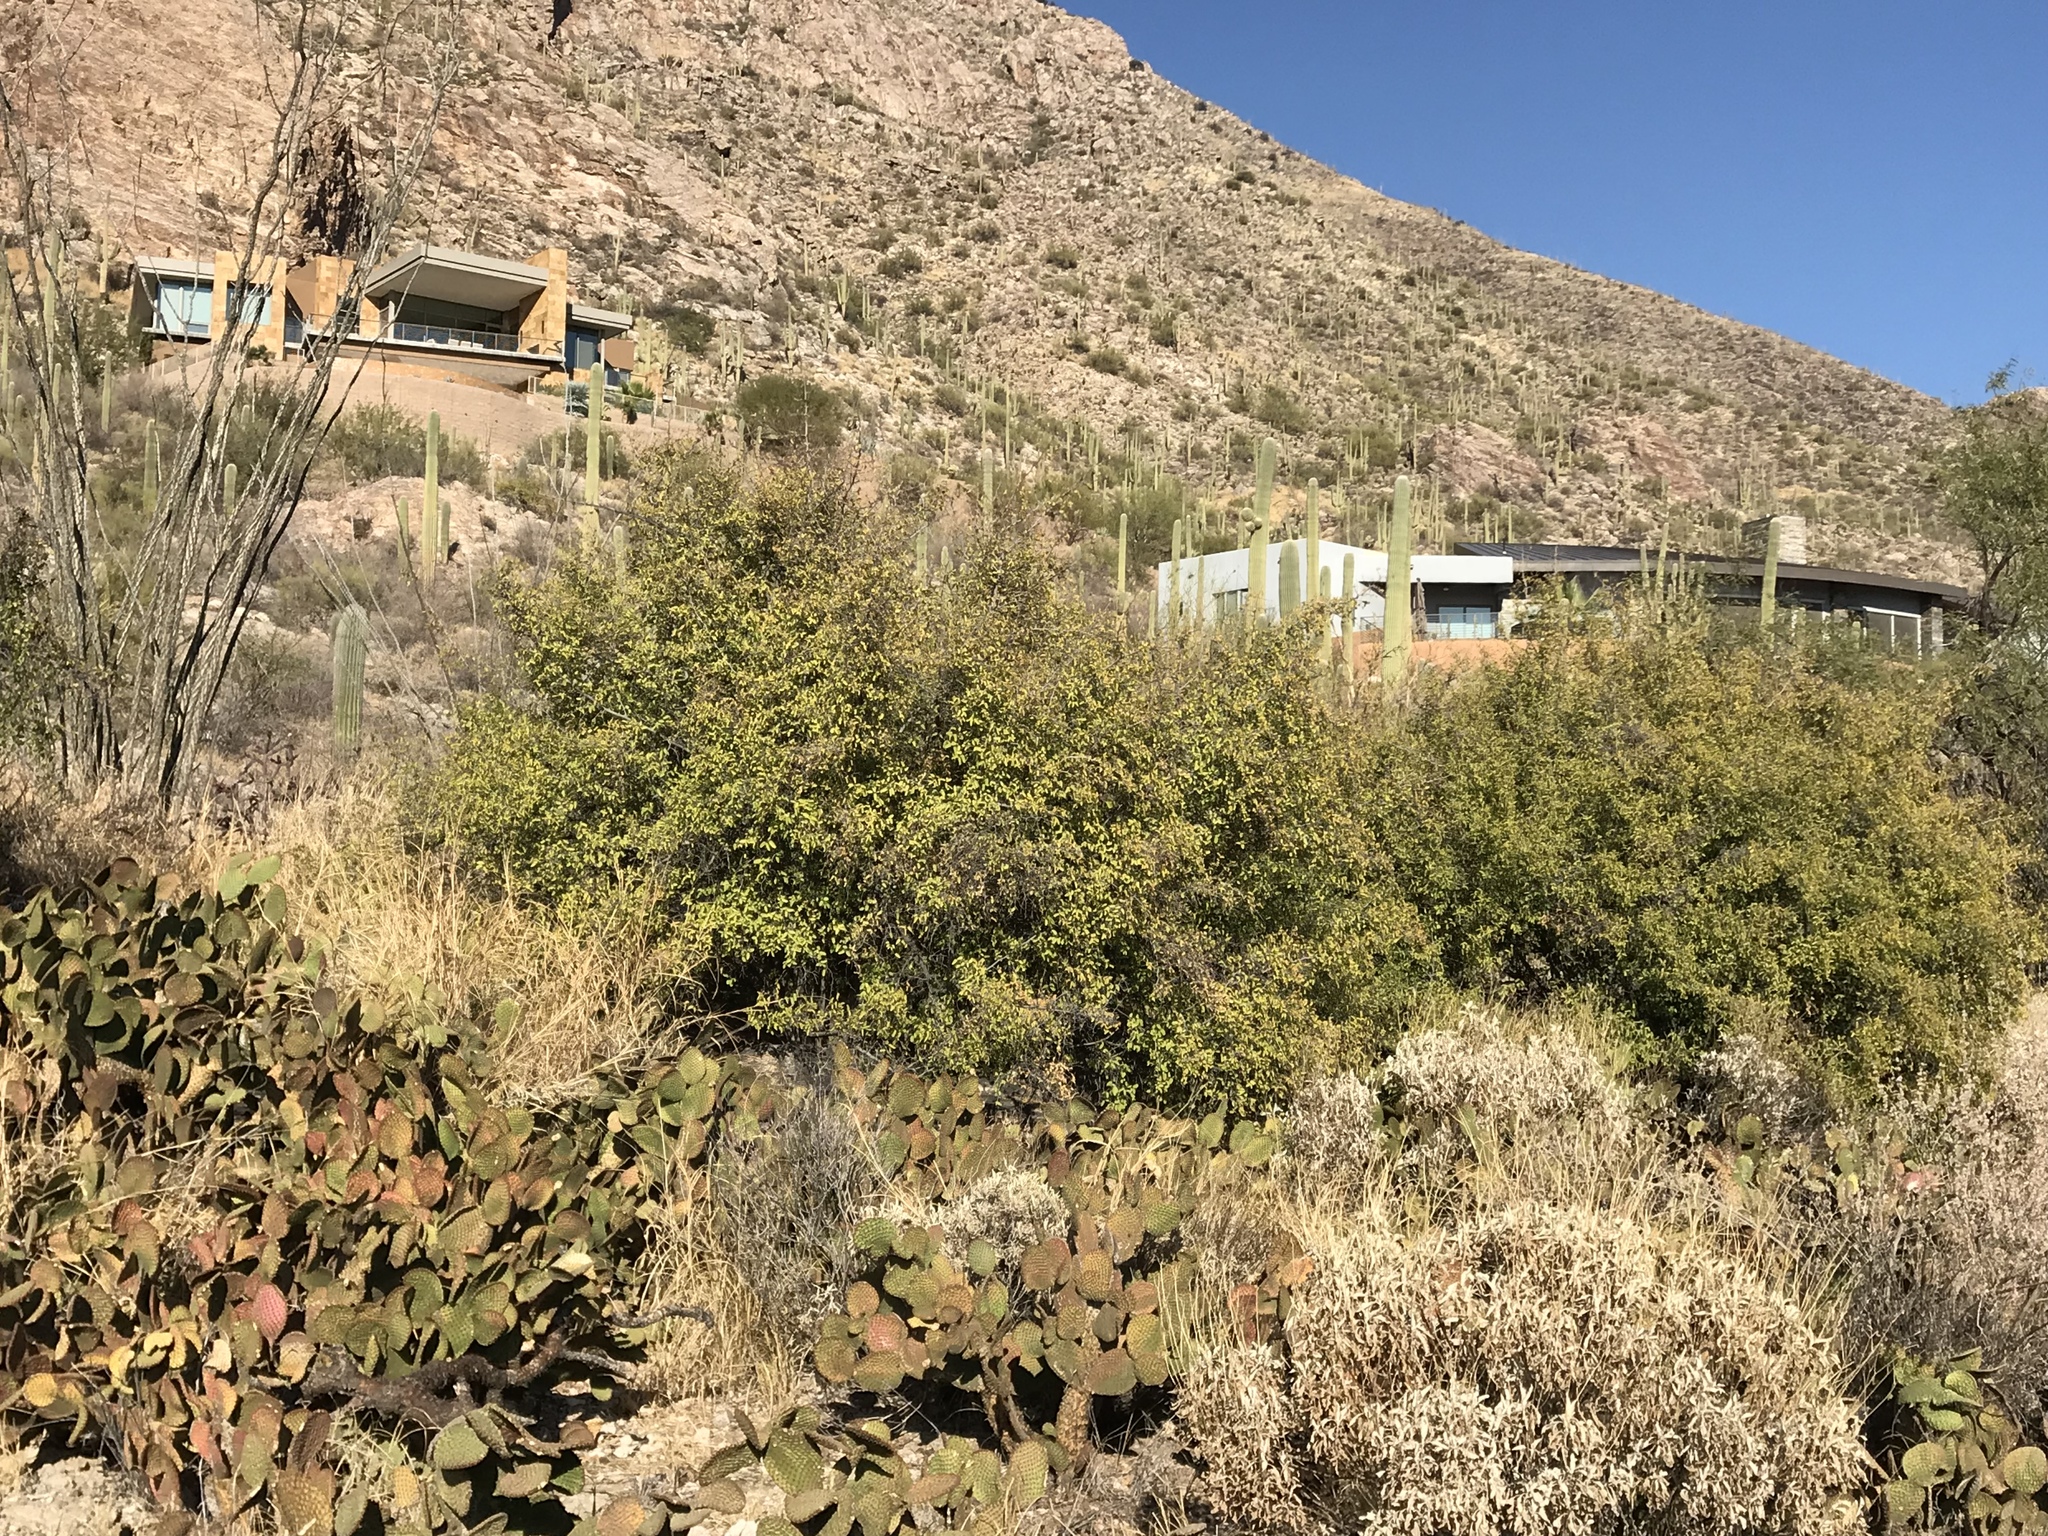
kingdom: Plantae
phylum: Tracheophyta
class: Magnoliopsida
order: Rosales
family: Cannabaceae
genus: Celtis
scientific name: Celtis pallida
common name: Desert hackberry
